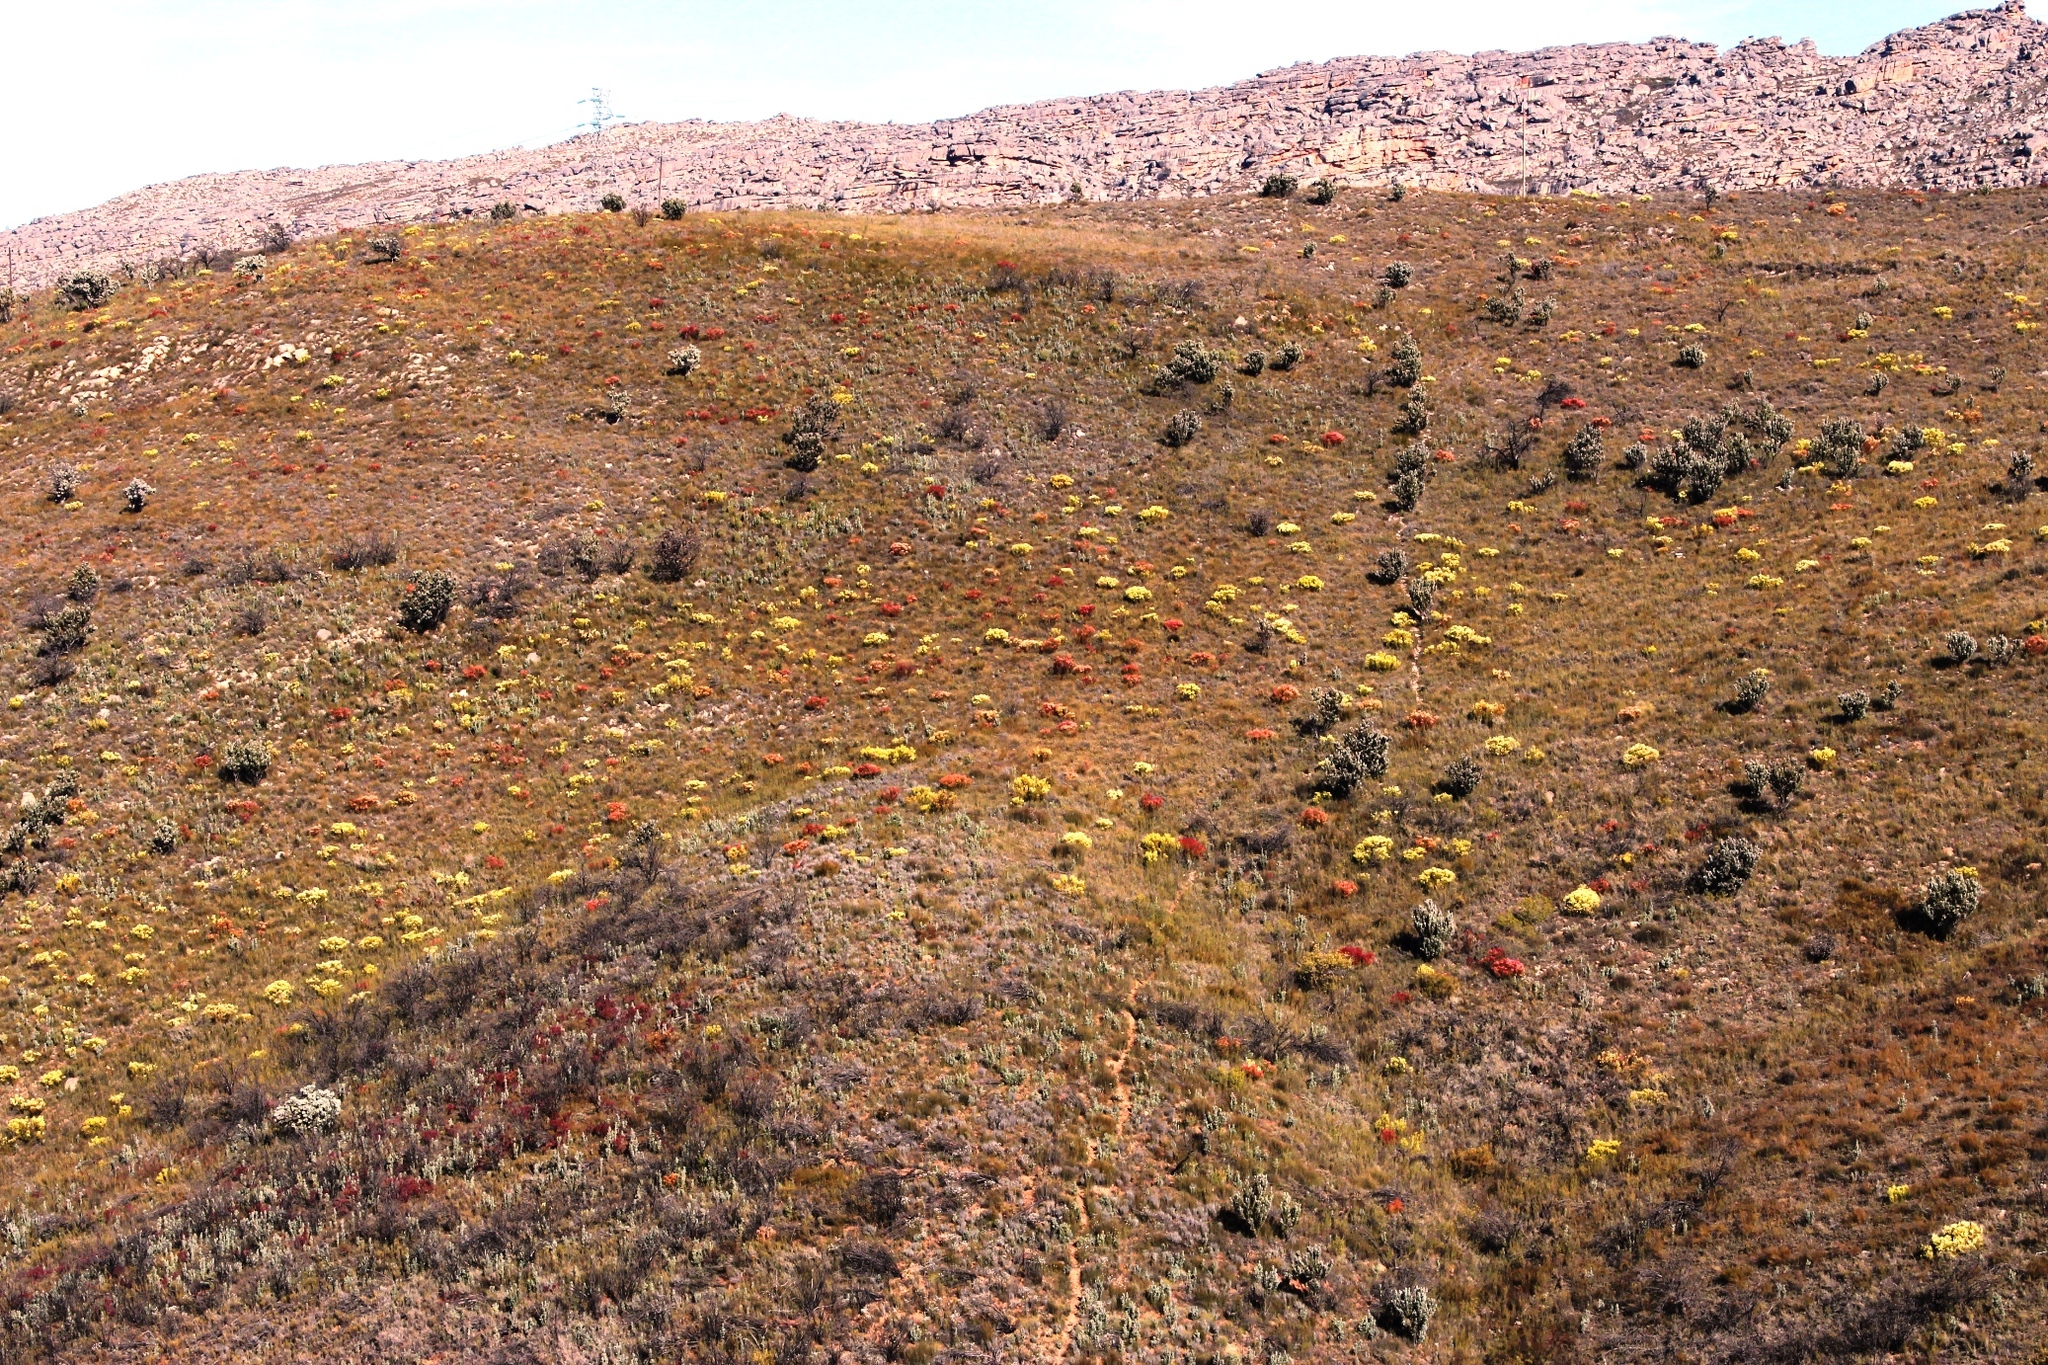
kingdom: Plantae
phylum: Tracheophyta
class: Magnoliopsida
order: Proteales
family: Proteaceae
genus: Leucadendron
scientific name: Leucadendron salignum
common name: Common sunshine conebush
